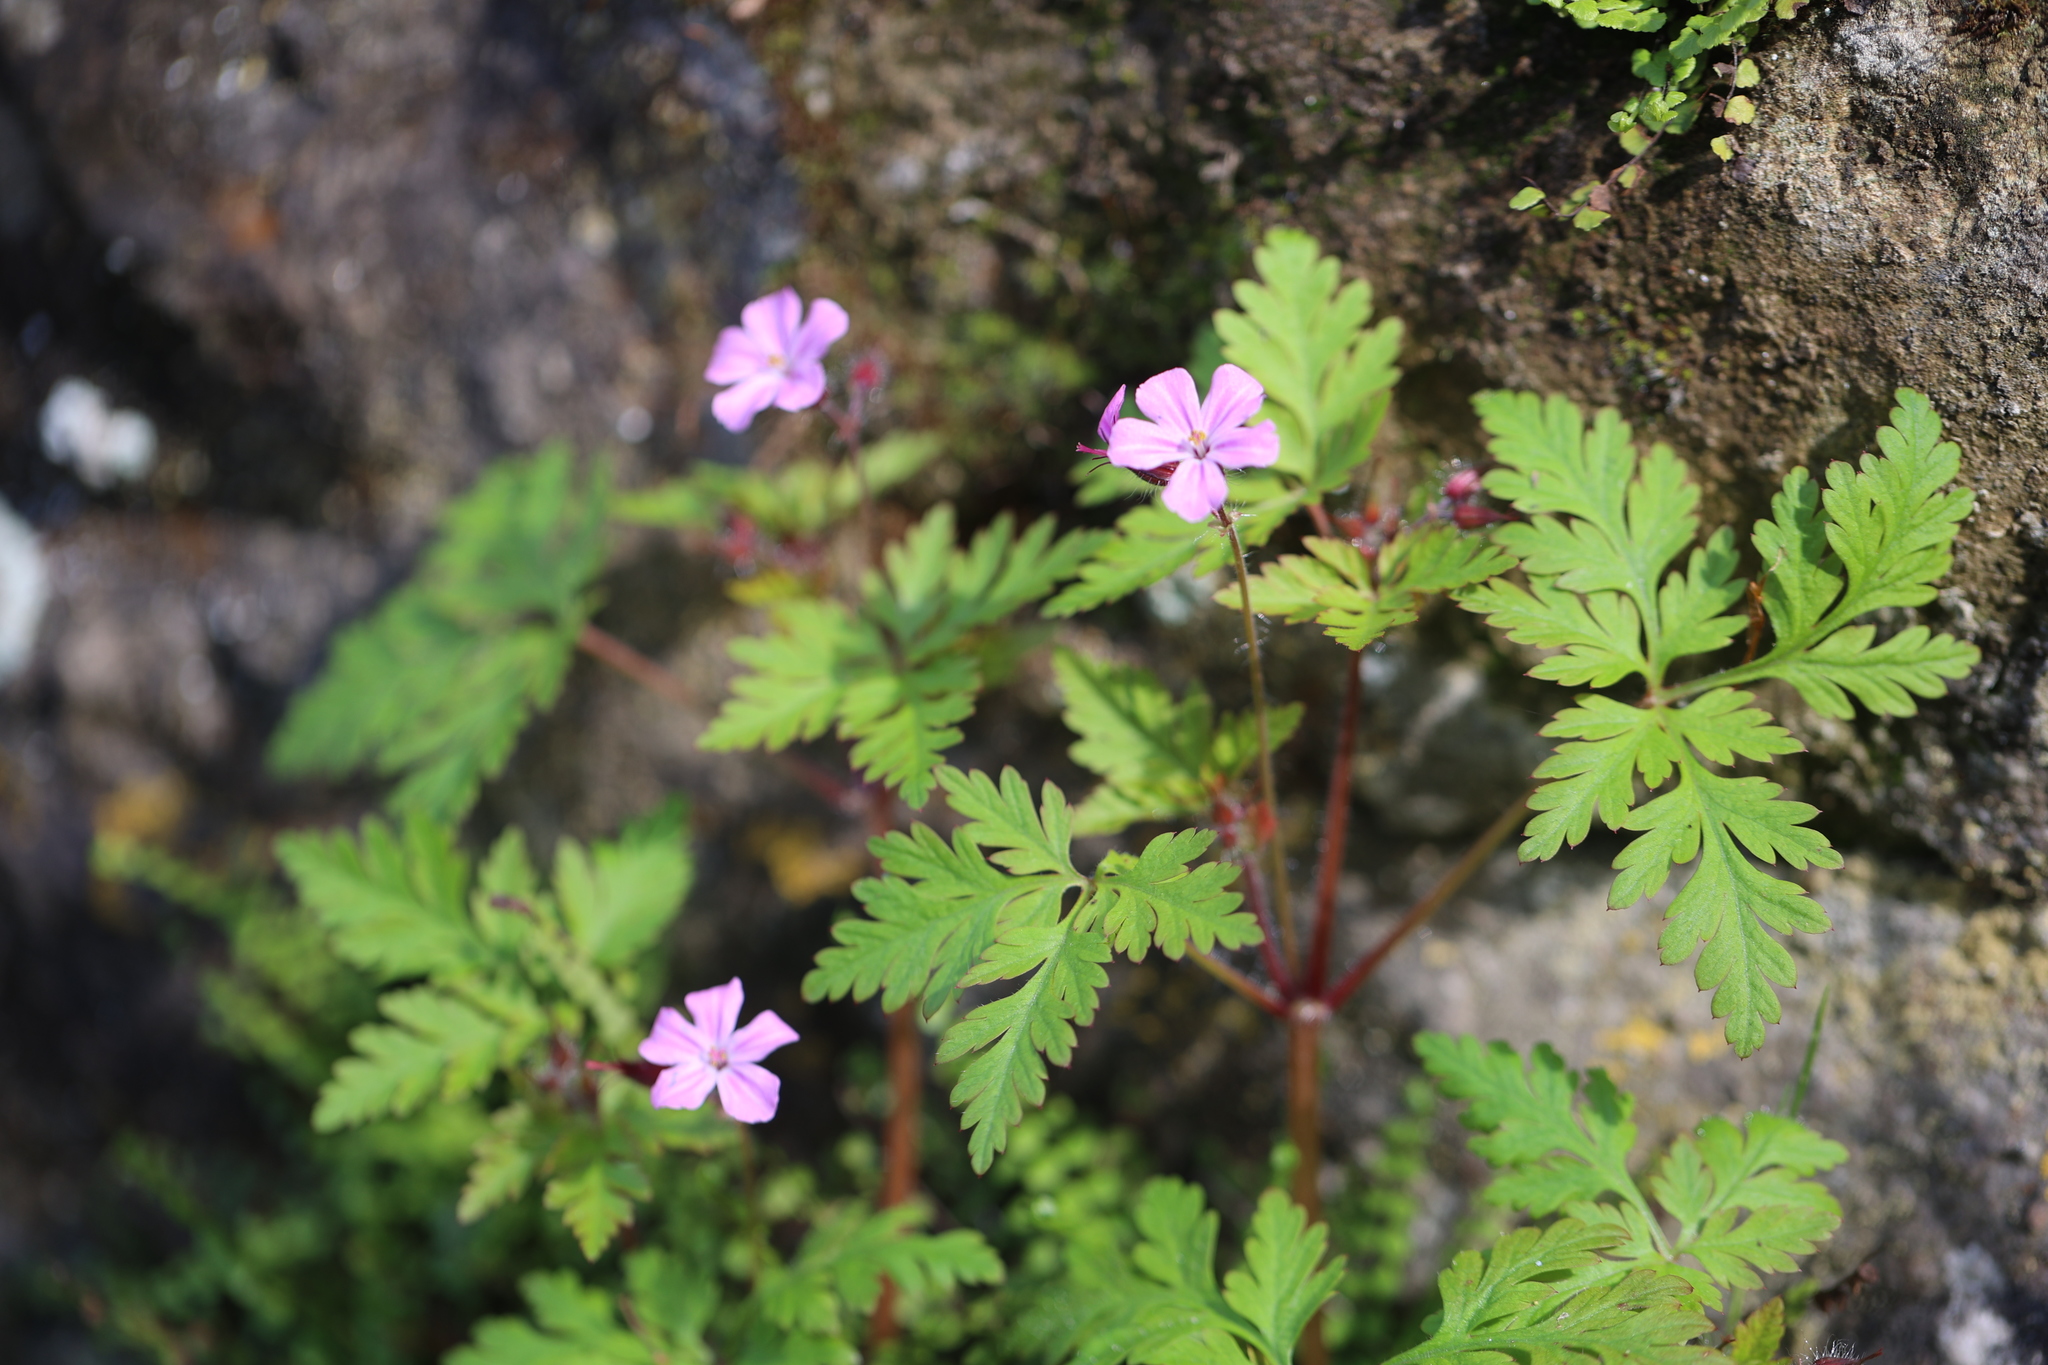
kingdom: Plantae
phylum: Tracheophyta
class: Magnoliopsida
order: Geraniales
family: Geraniaceae
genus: Geranium
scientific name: Geranium robertianum
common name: Herb-robert
